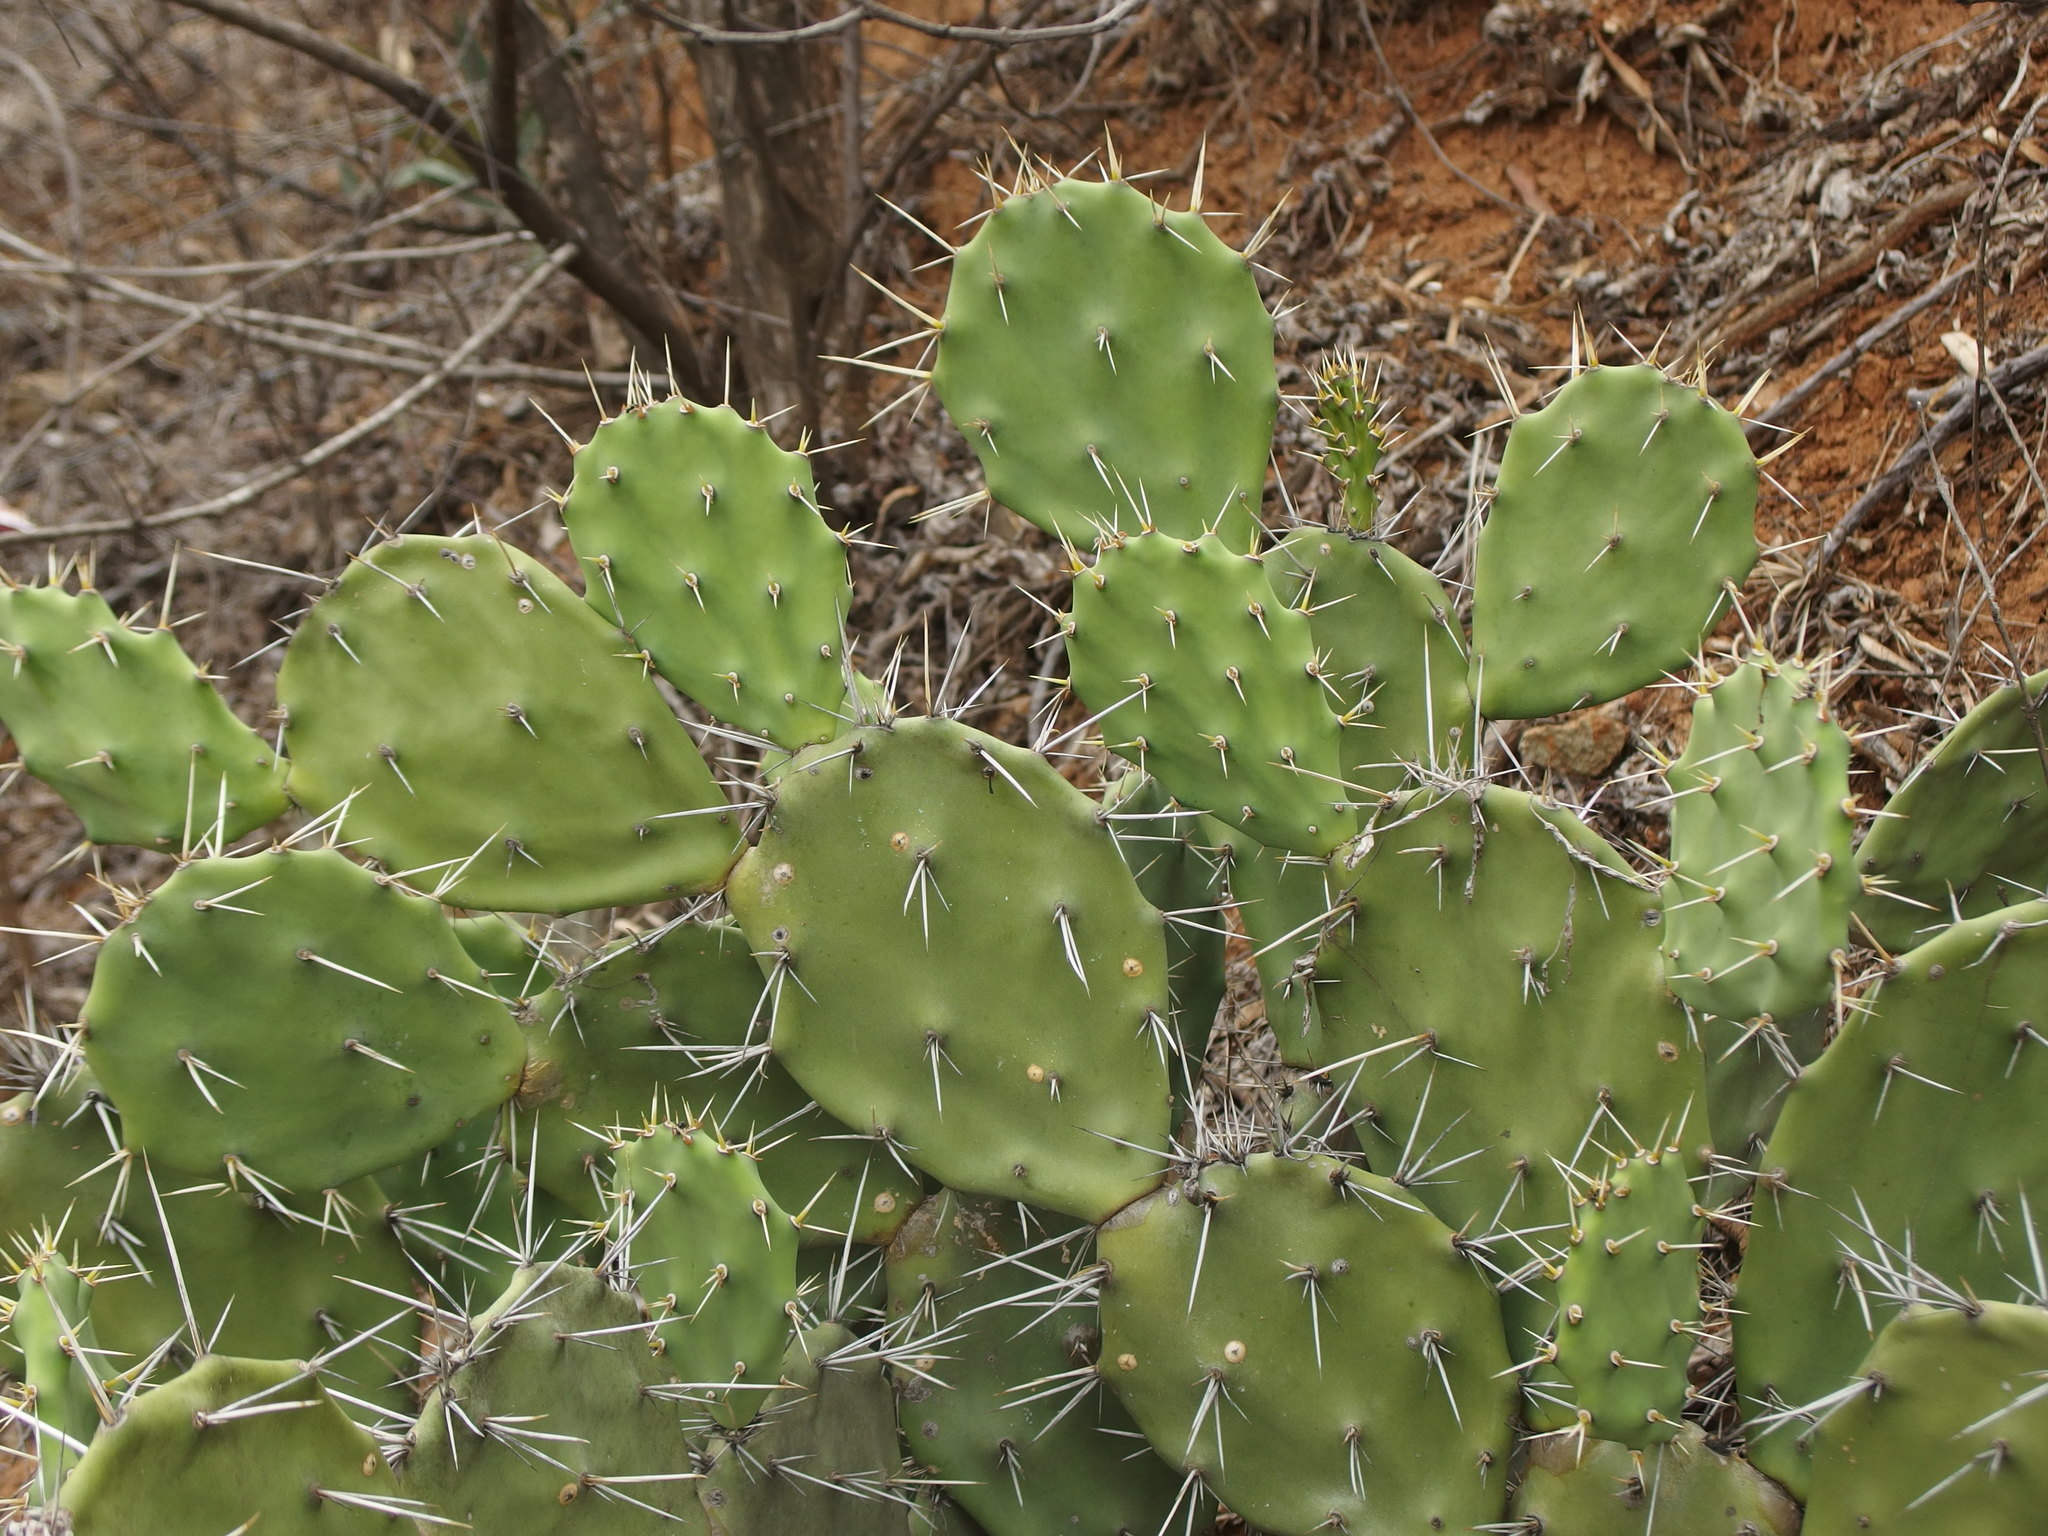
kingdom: Plantae
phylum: Tracheophyta
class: Magnoliopsida
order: Caryophyllales
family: Cactaceae
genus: Opuntia
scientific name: Opuntia quitensis
